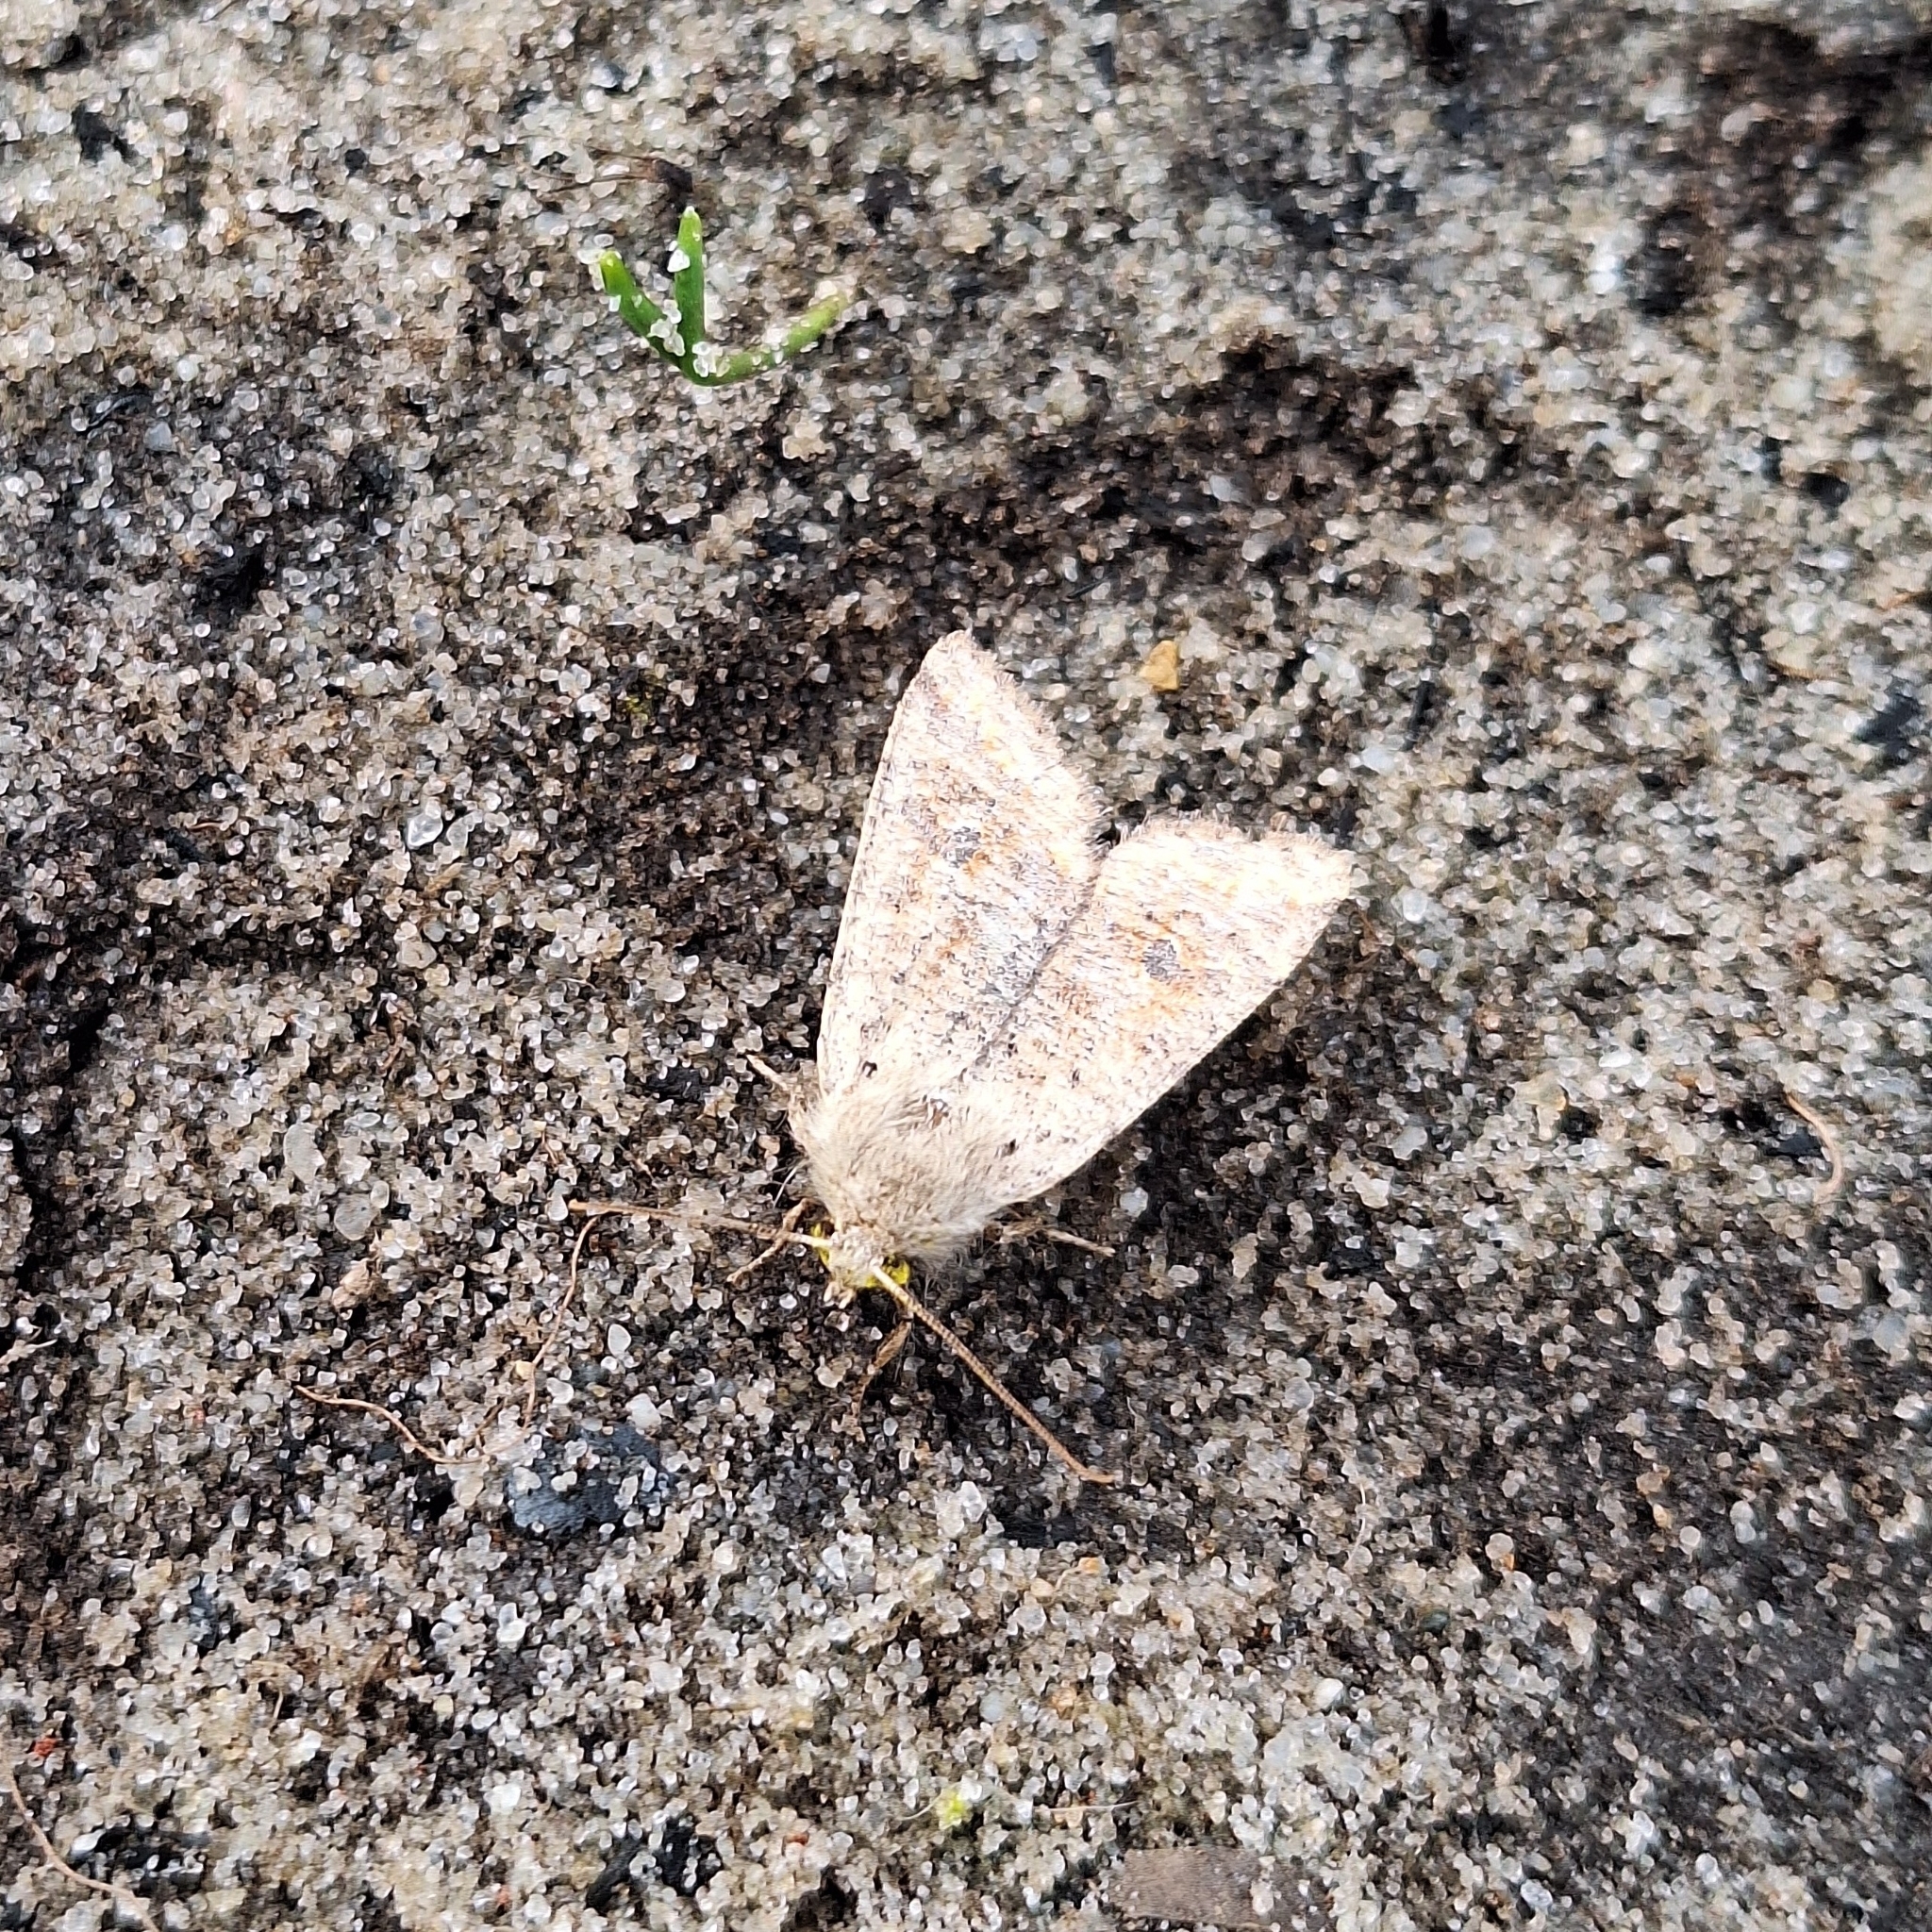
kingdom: Animalia
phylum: Arthropoda
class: Insecta
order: Lepidoptera
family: Noctuidae
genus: Orthosia
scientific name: Orthosia cruda
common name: Small quaker
